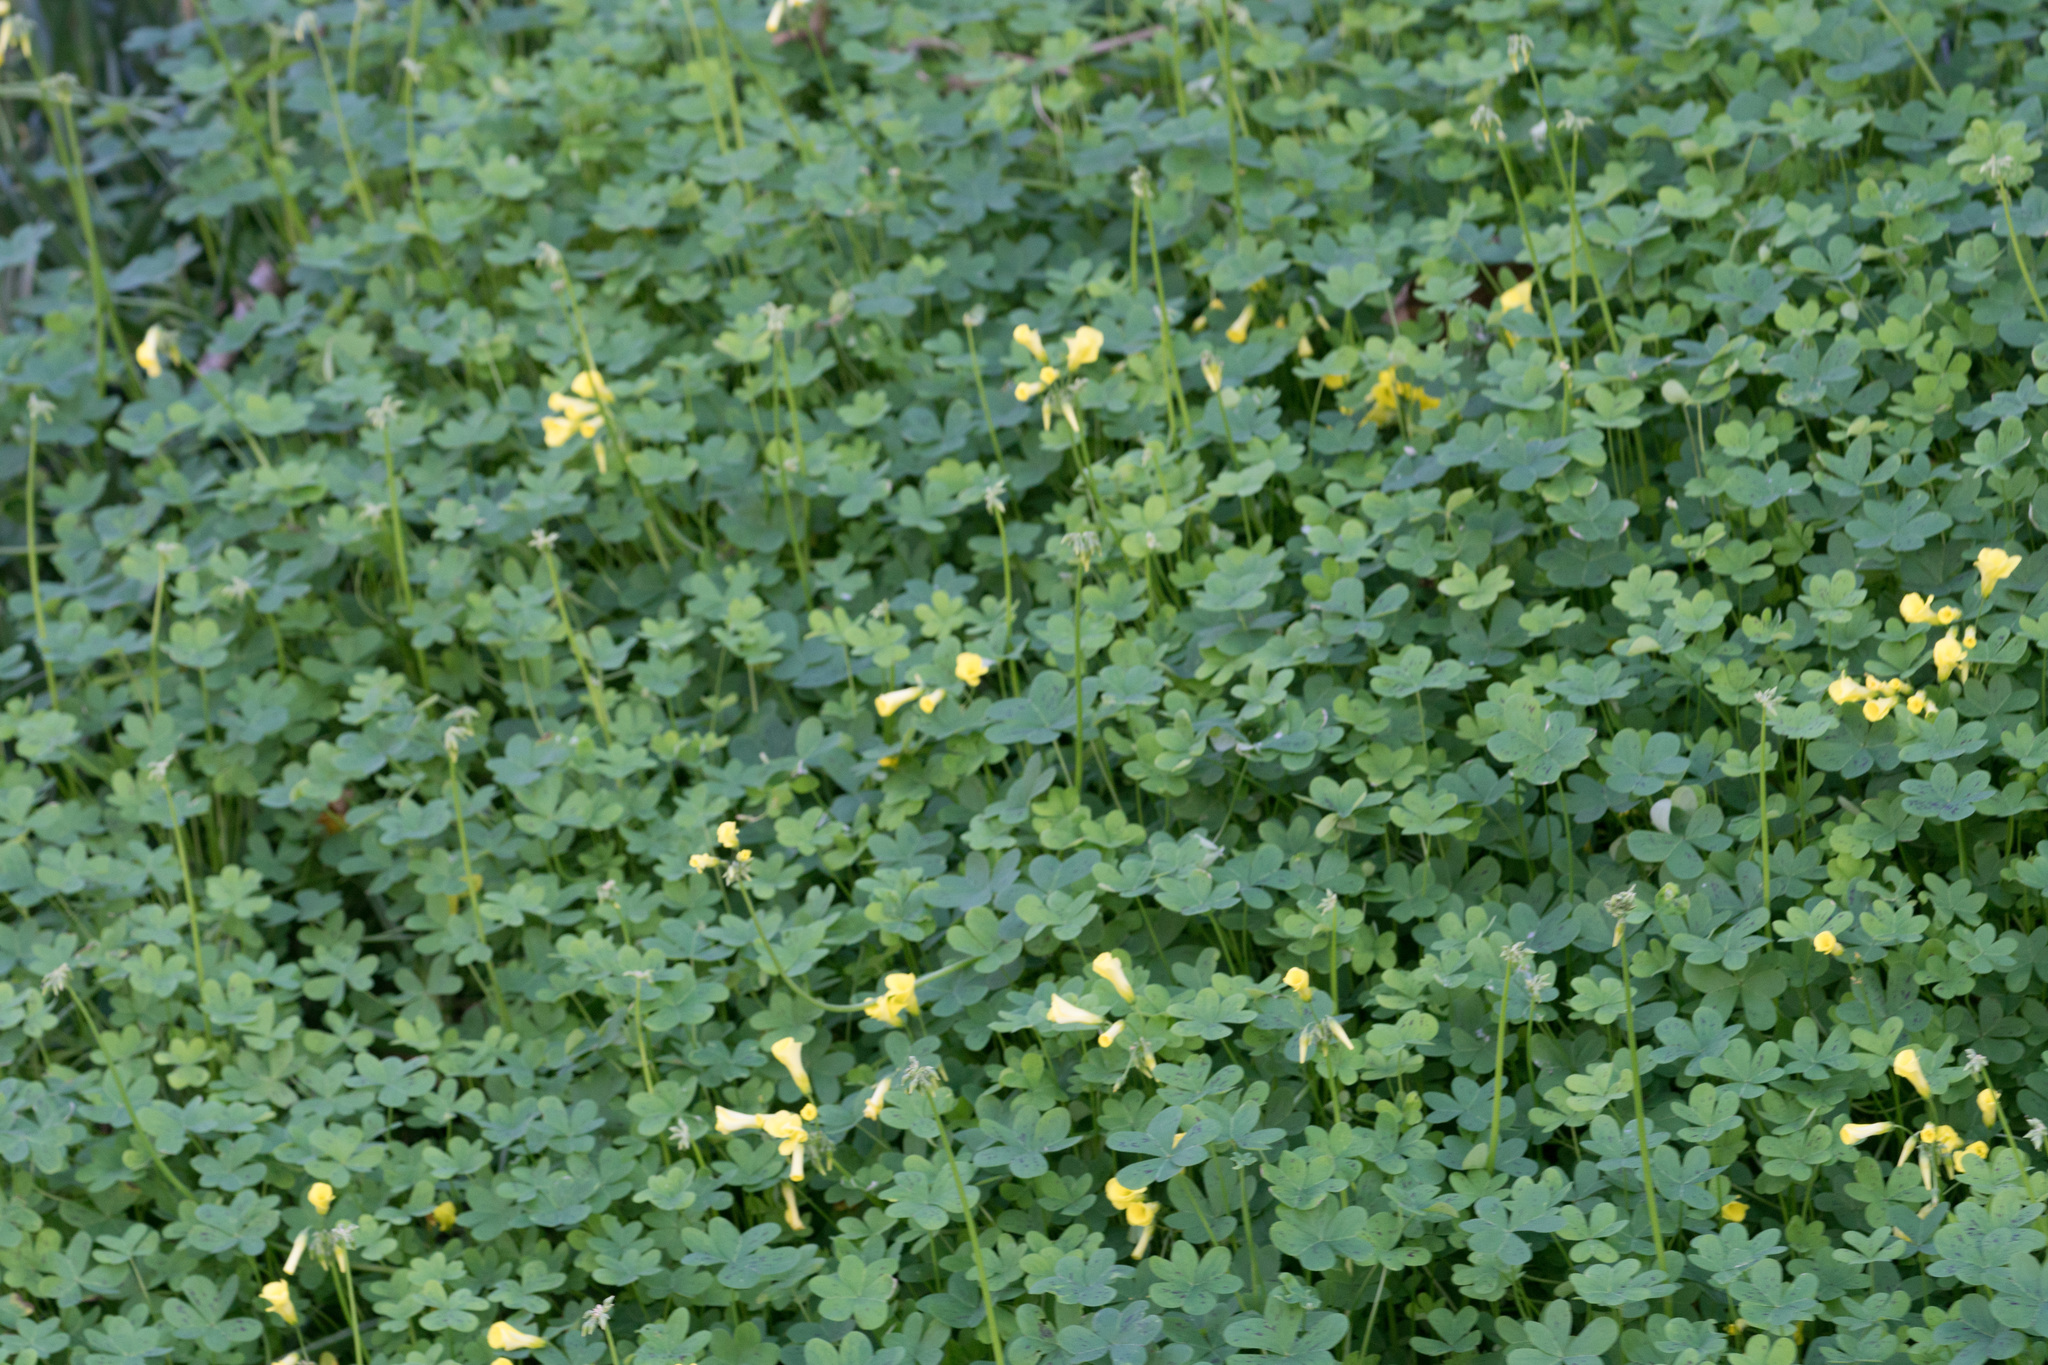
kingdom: Plantae
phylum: Tracheophyta
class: Magnoliopsida
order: Oxalidales
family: Oxalidaceae
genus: Oxalis
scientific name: Oxalis pes-caprae
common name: Bermuda-buttercup
